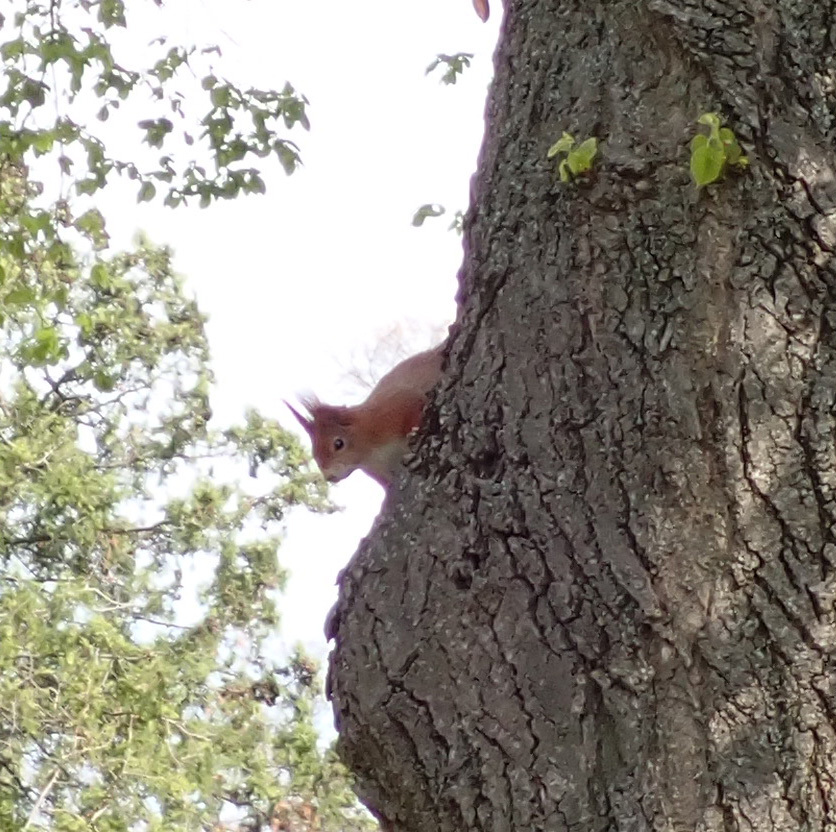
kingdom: Animalia
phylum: Chordata
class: Mammalia
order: Rodentia
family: Sciuridae
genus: Sciurus
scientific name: Sciurus vulgaris
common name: Eurasian red squirrel
